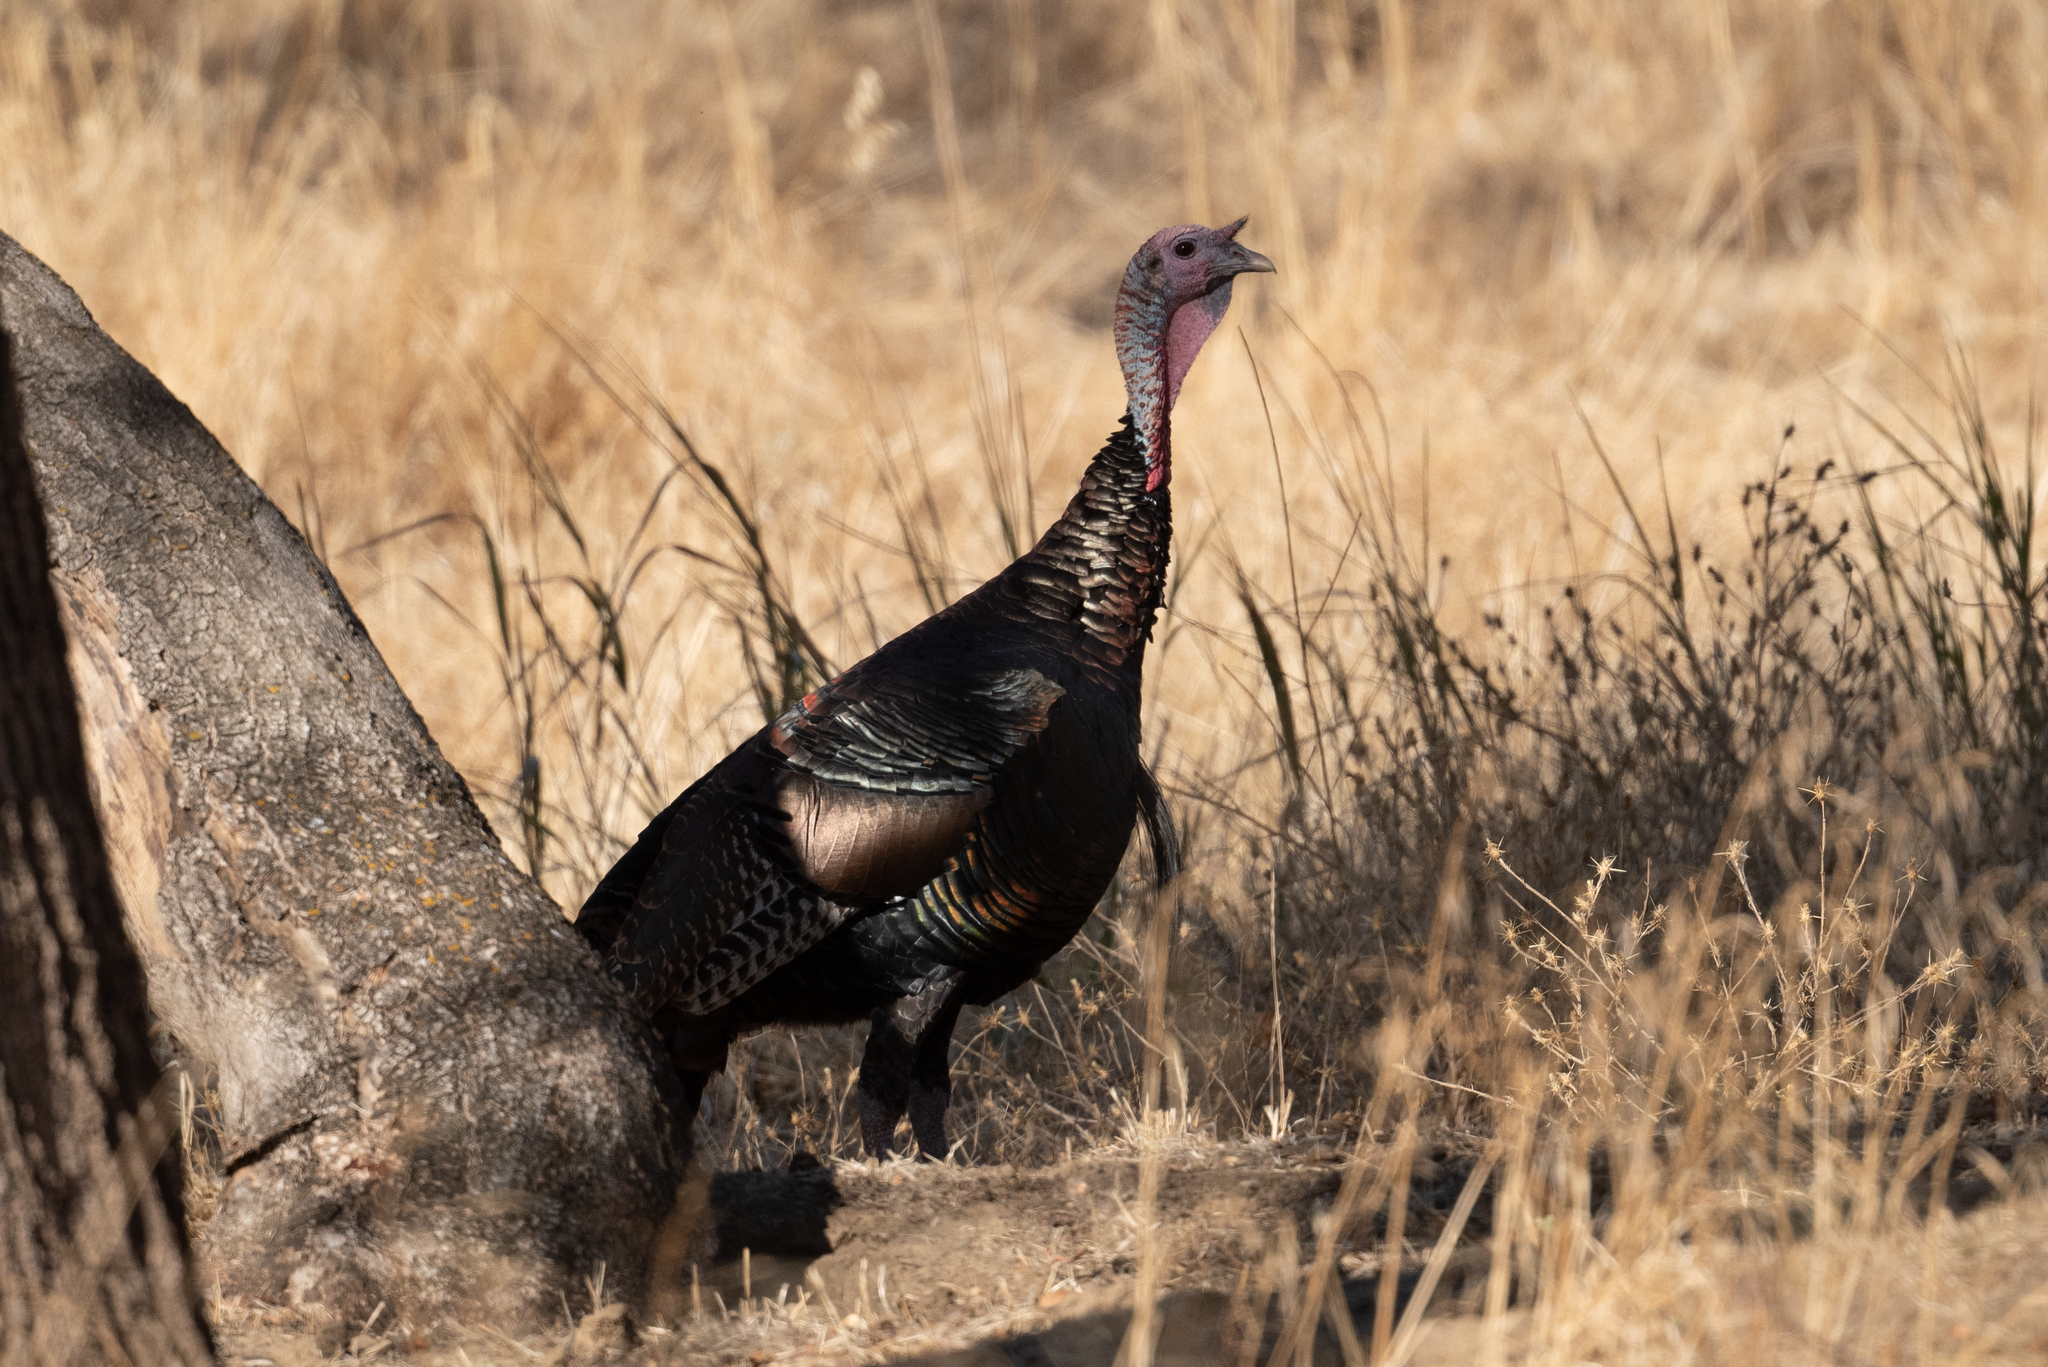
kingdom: Animalia
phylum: Chordata
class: Aves
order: Galliformes
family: Phasianidae
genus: Meleagris
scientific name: Meleagris gallopavo
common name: Wild turkey
